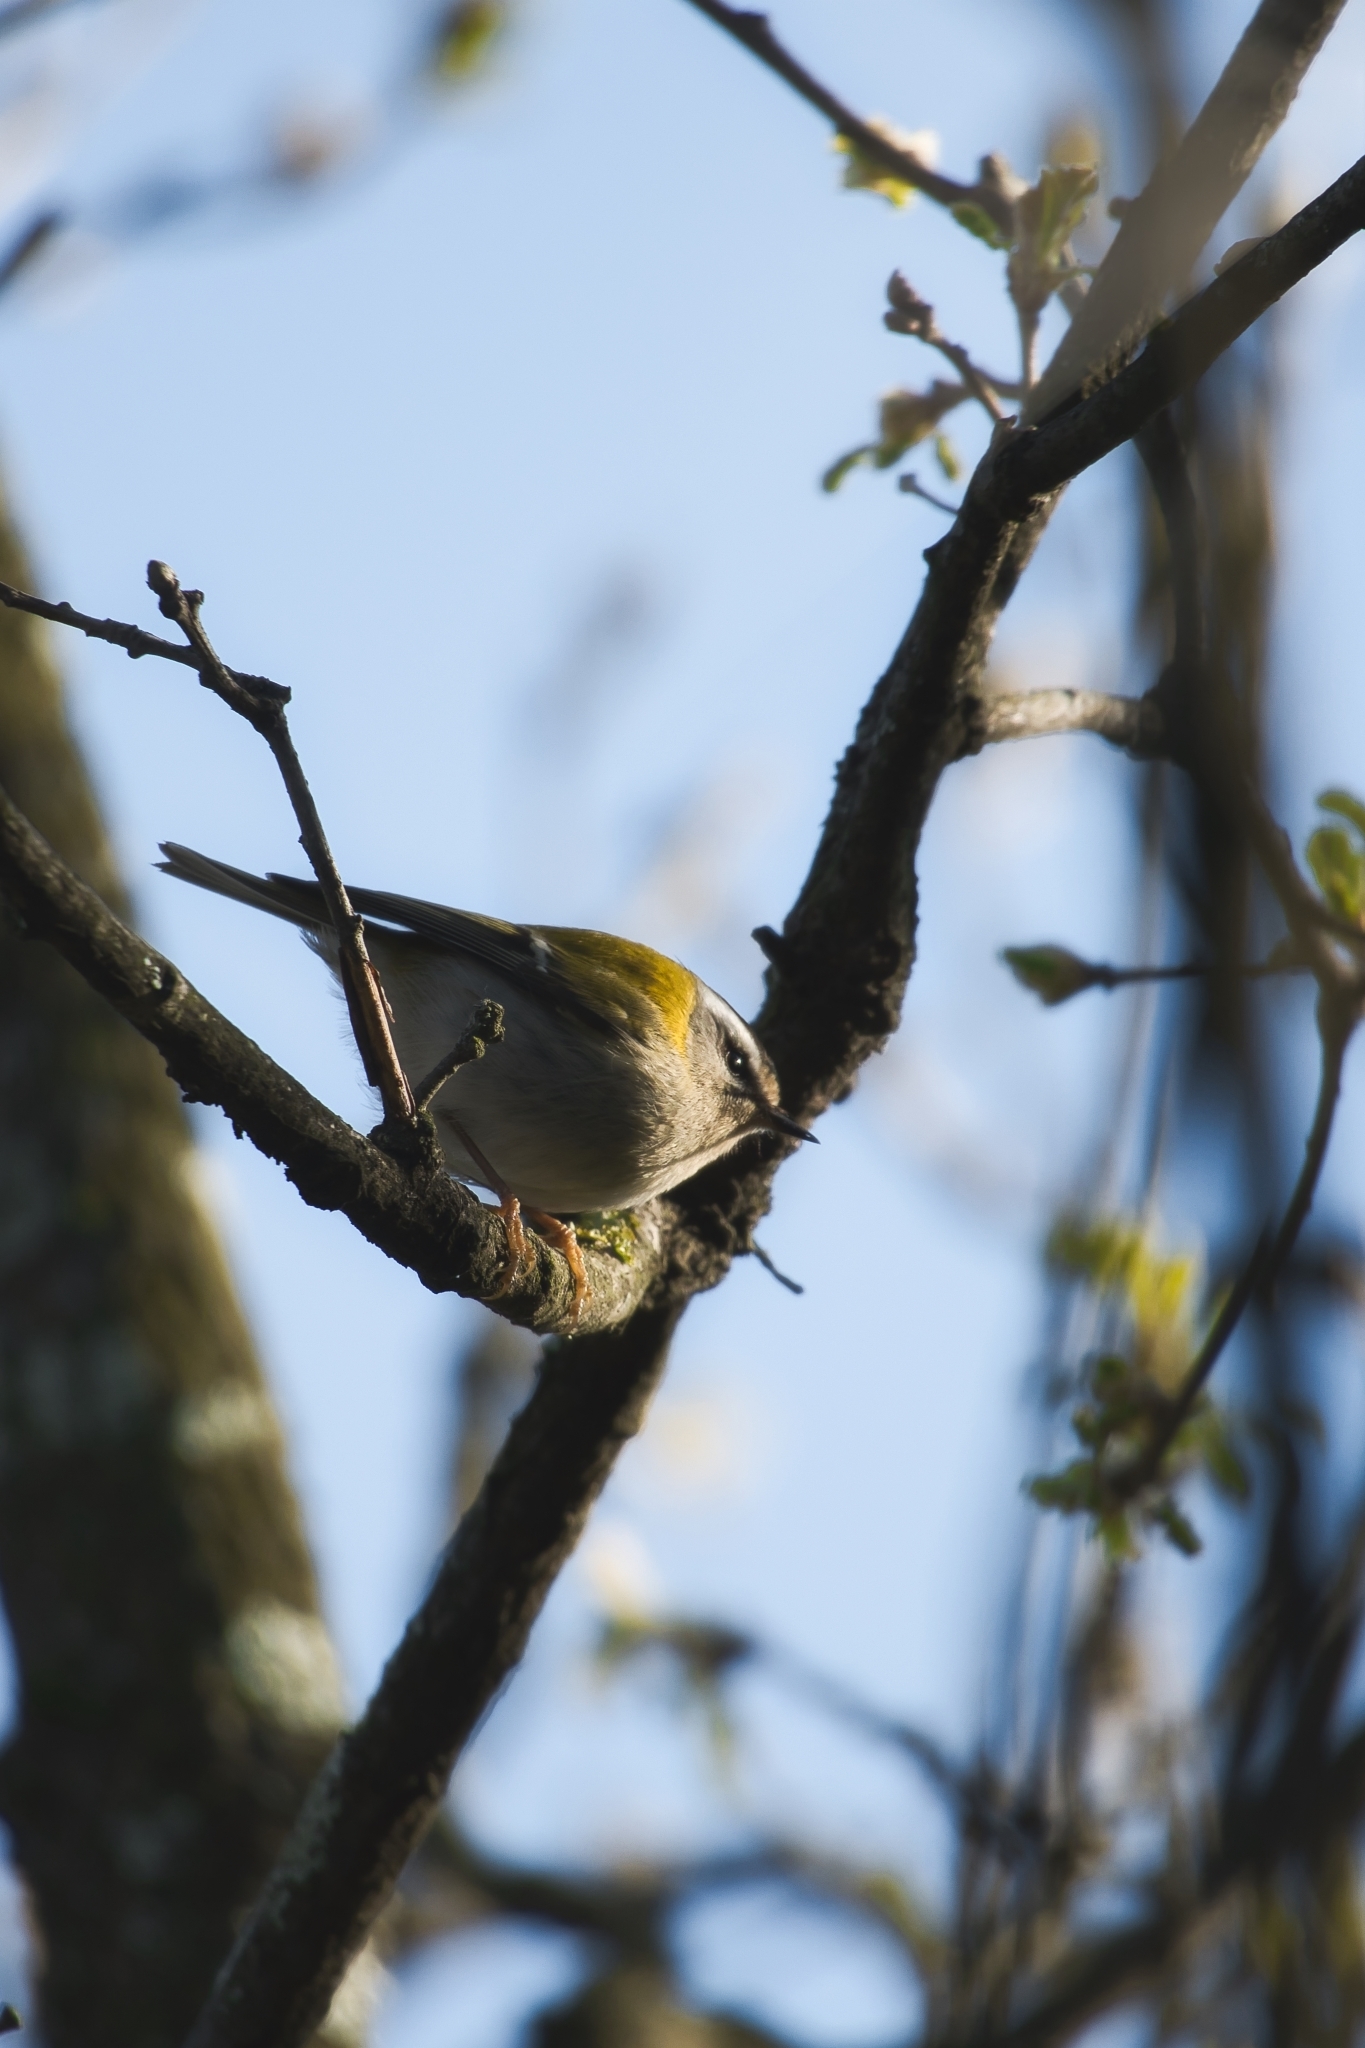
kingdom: Animalia
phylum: Chordata
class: Aves
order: Passeriformes
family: Regulidae
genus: Regulus
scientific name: Regulus ignicapilla
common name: Firecrest
